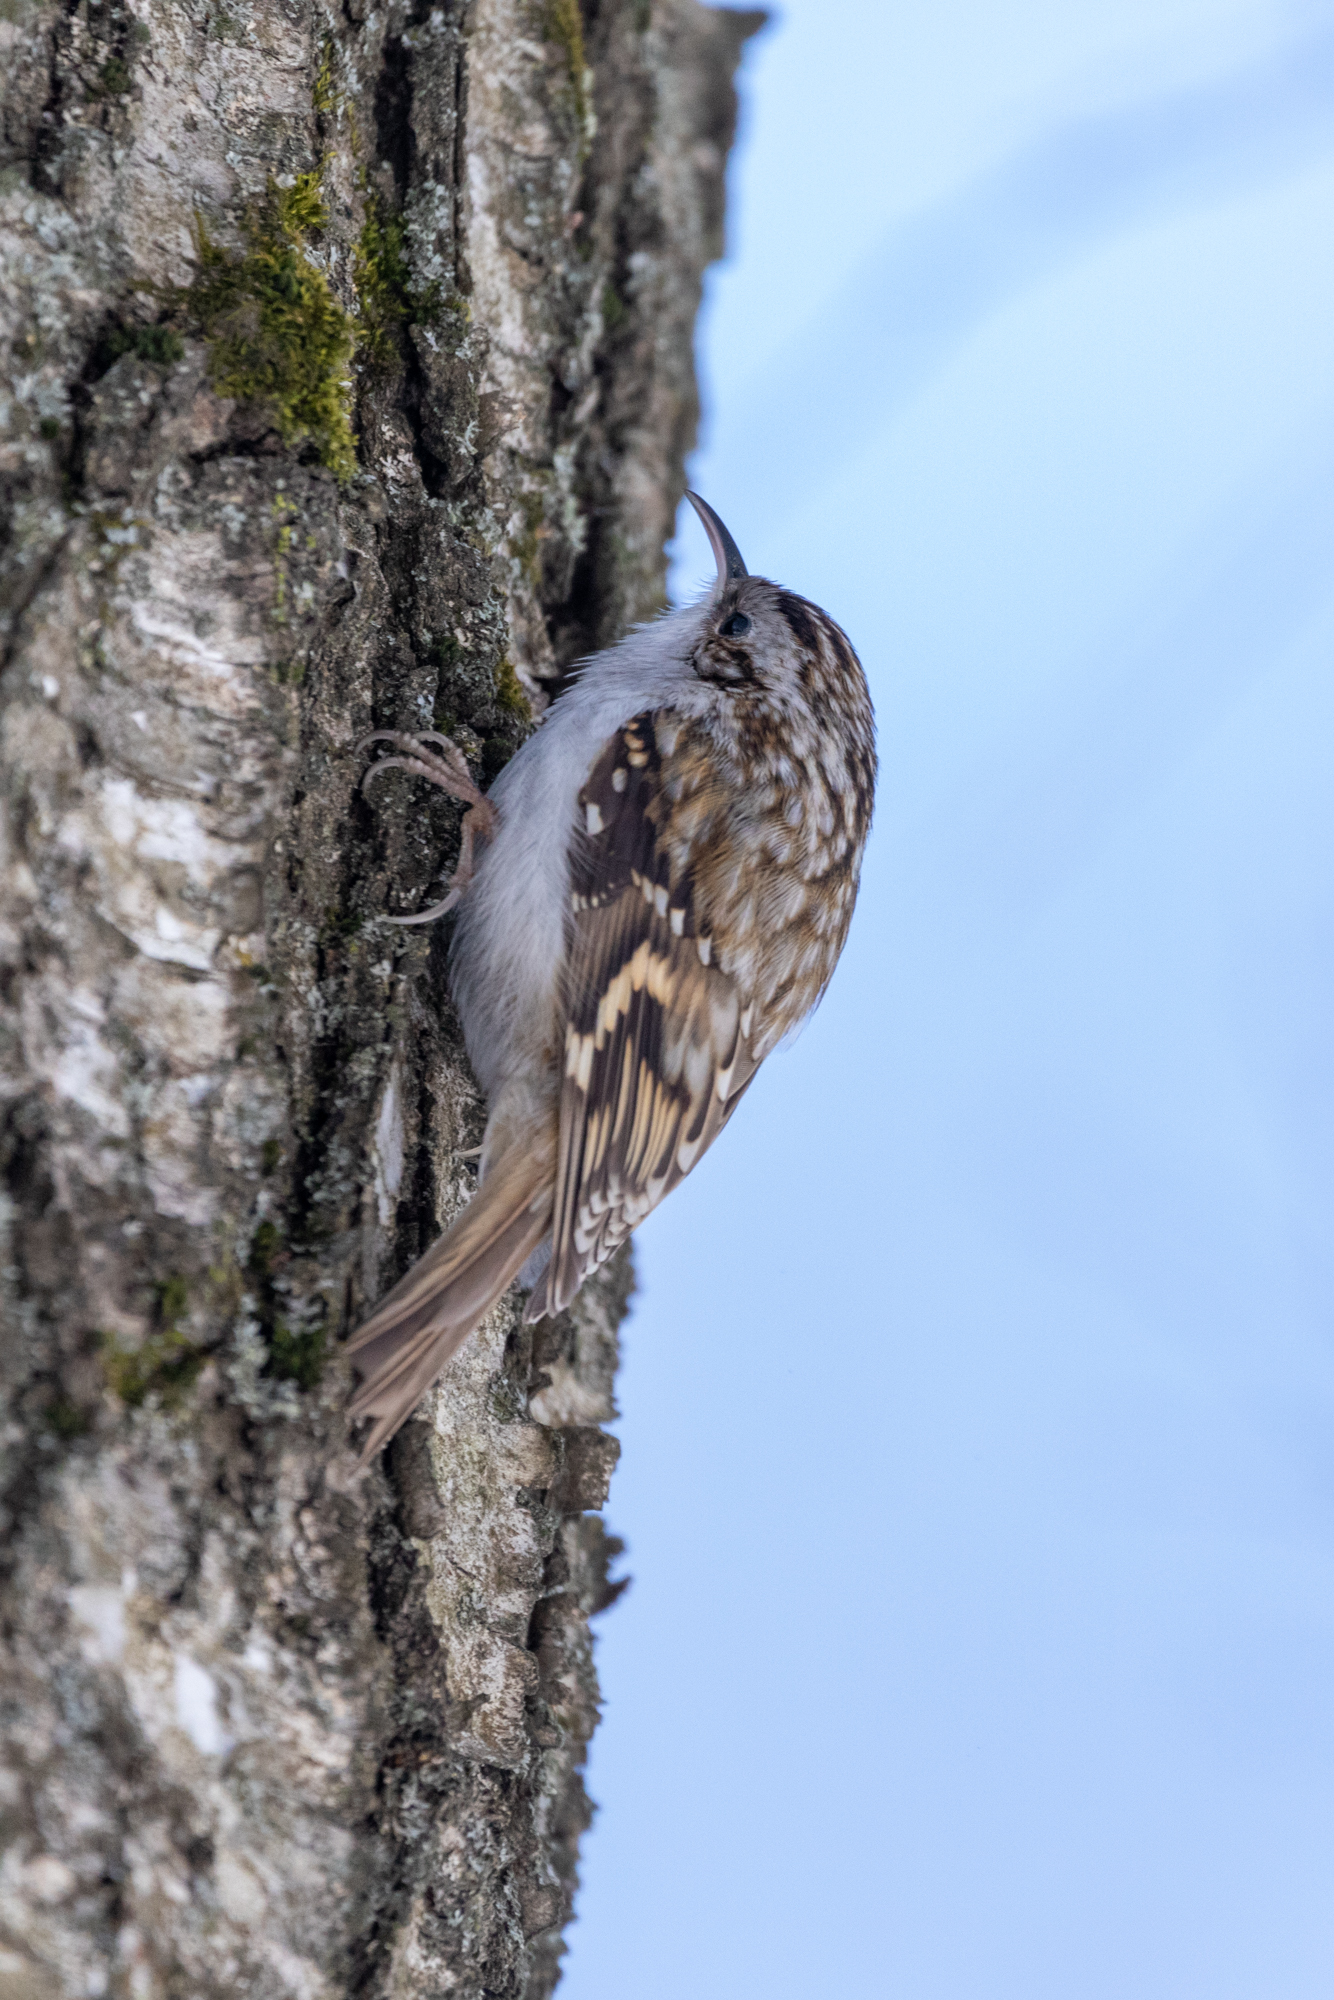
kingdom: Animalia
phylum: Chordata
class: Aves
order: Passeriformes
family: Certhiidae
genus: Certhia
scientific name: Certhia familiaris
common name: Eurasian treecreeper
